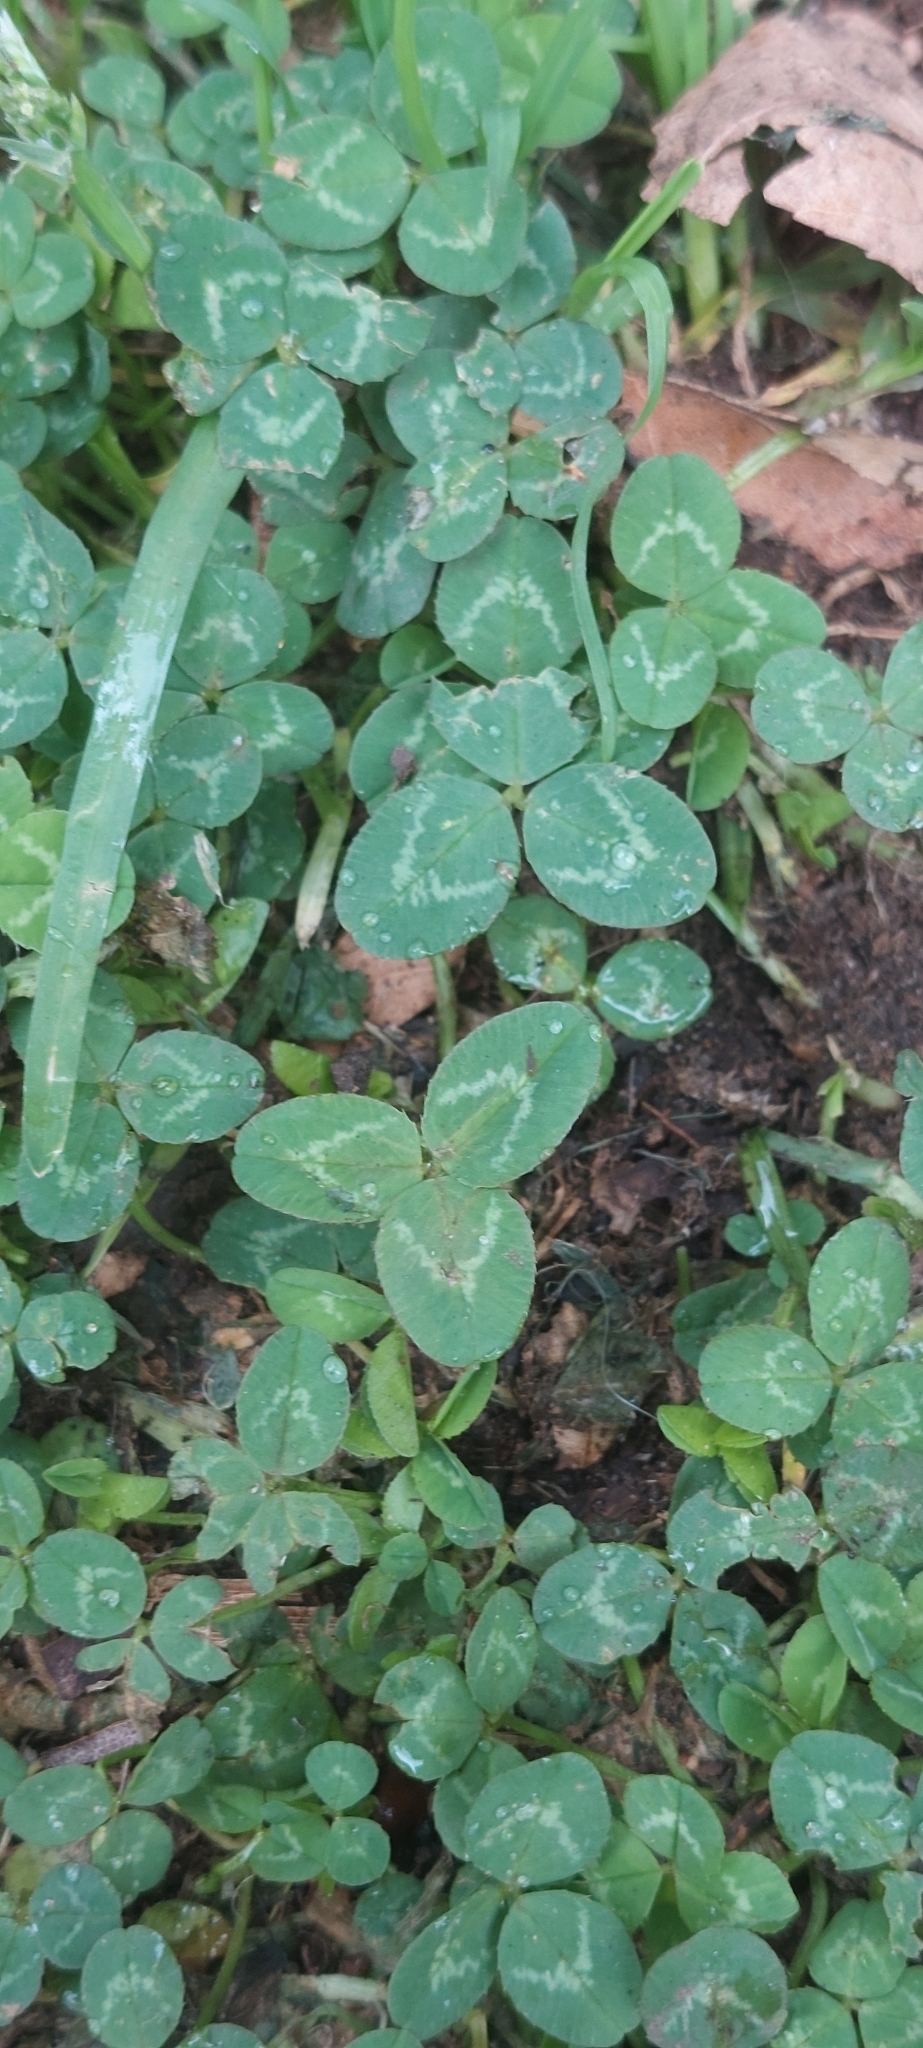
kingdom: Plantae
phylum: Tracheophyta
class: Magnoliopsida
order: Fabales
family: Fabaceae
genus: Trifolium
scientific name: Trifolium repens
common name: White clover
